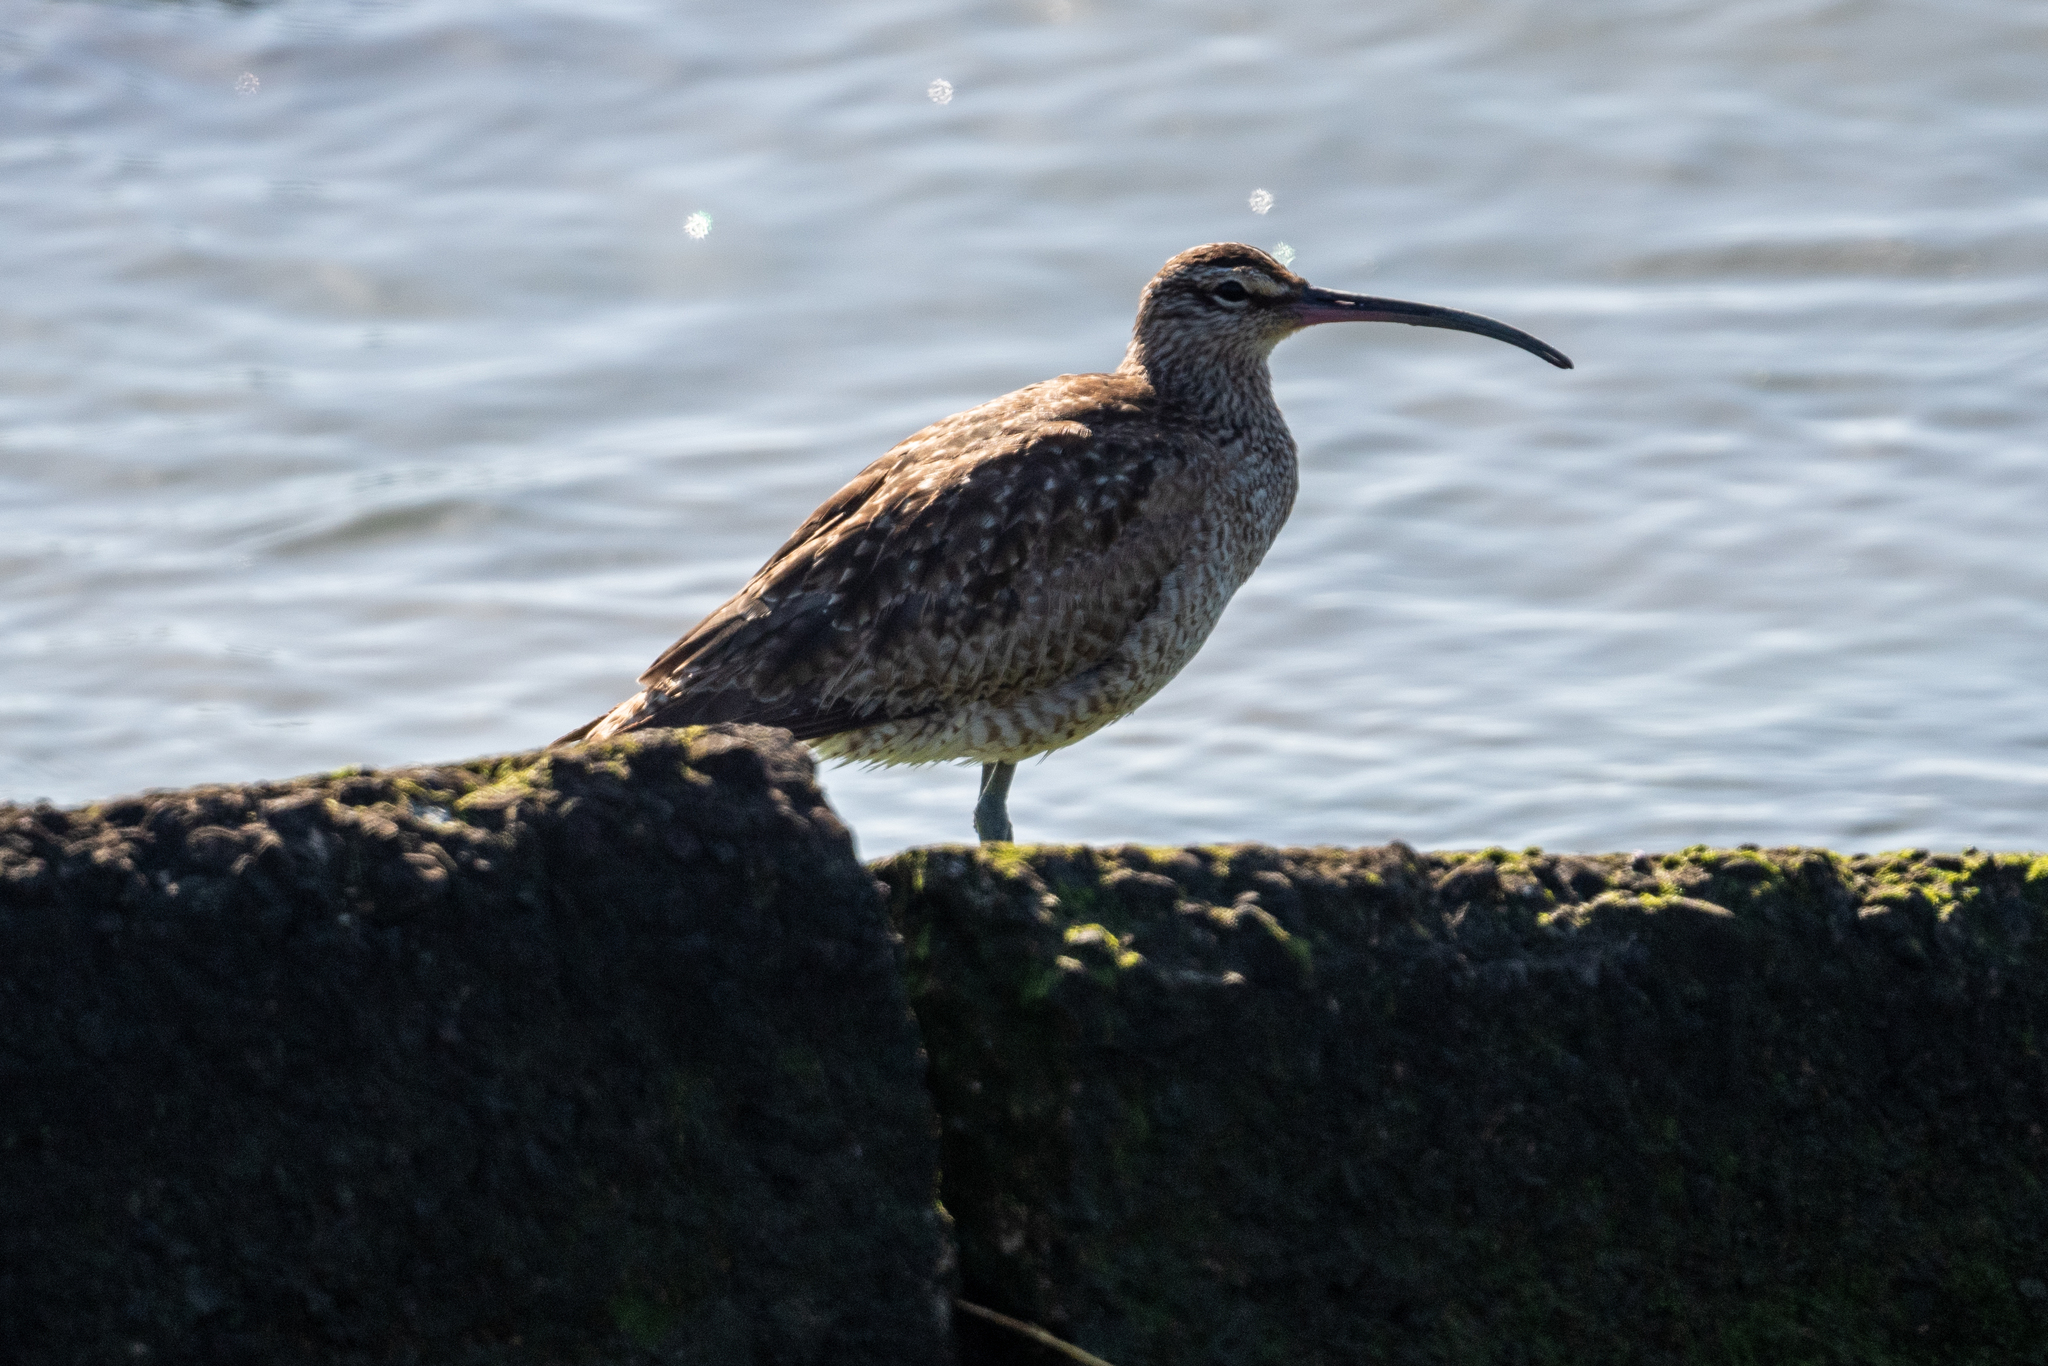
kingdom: Animalia
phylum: Chordata
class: Aves
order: Charadriiformes
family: Scolopacidae
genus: Numenius
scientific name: Numenius phaeopus
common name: Whimbrel
